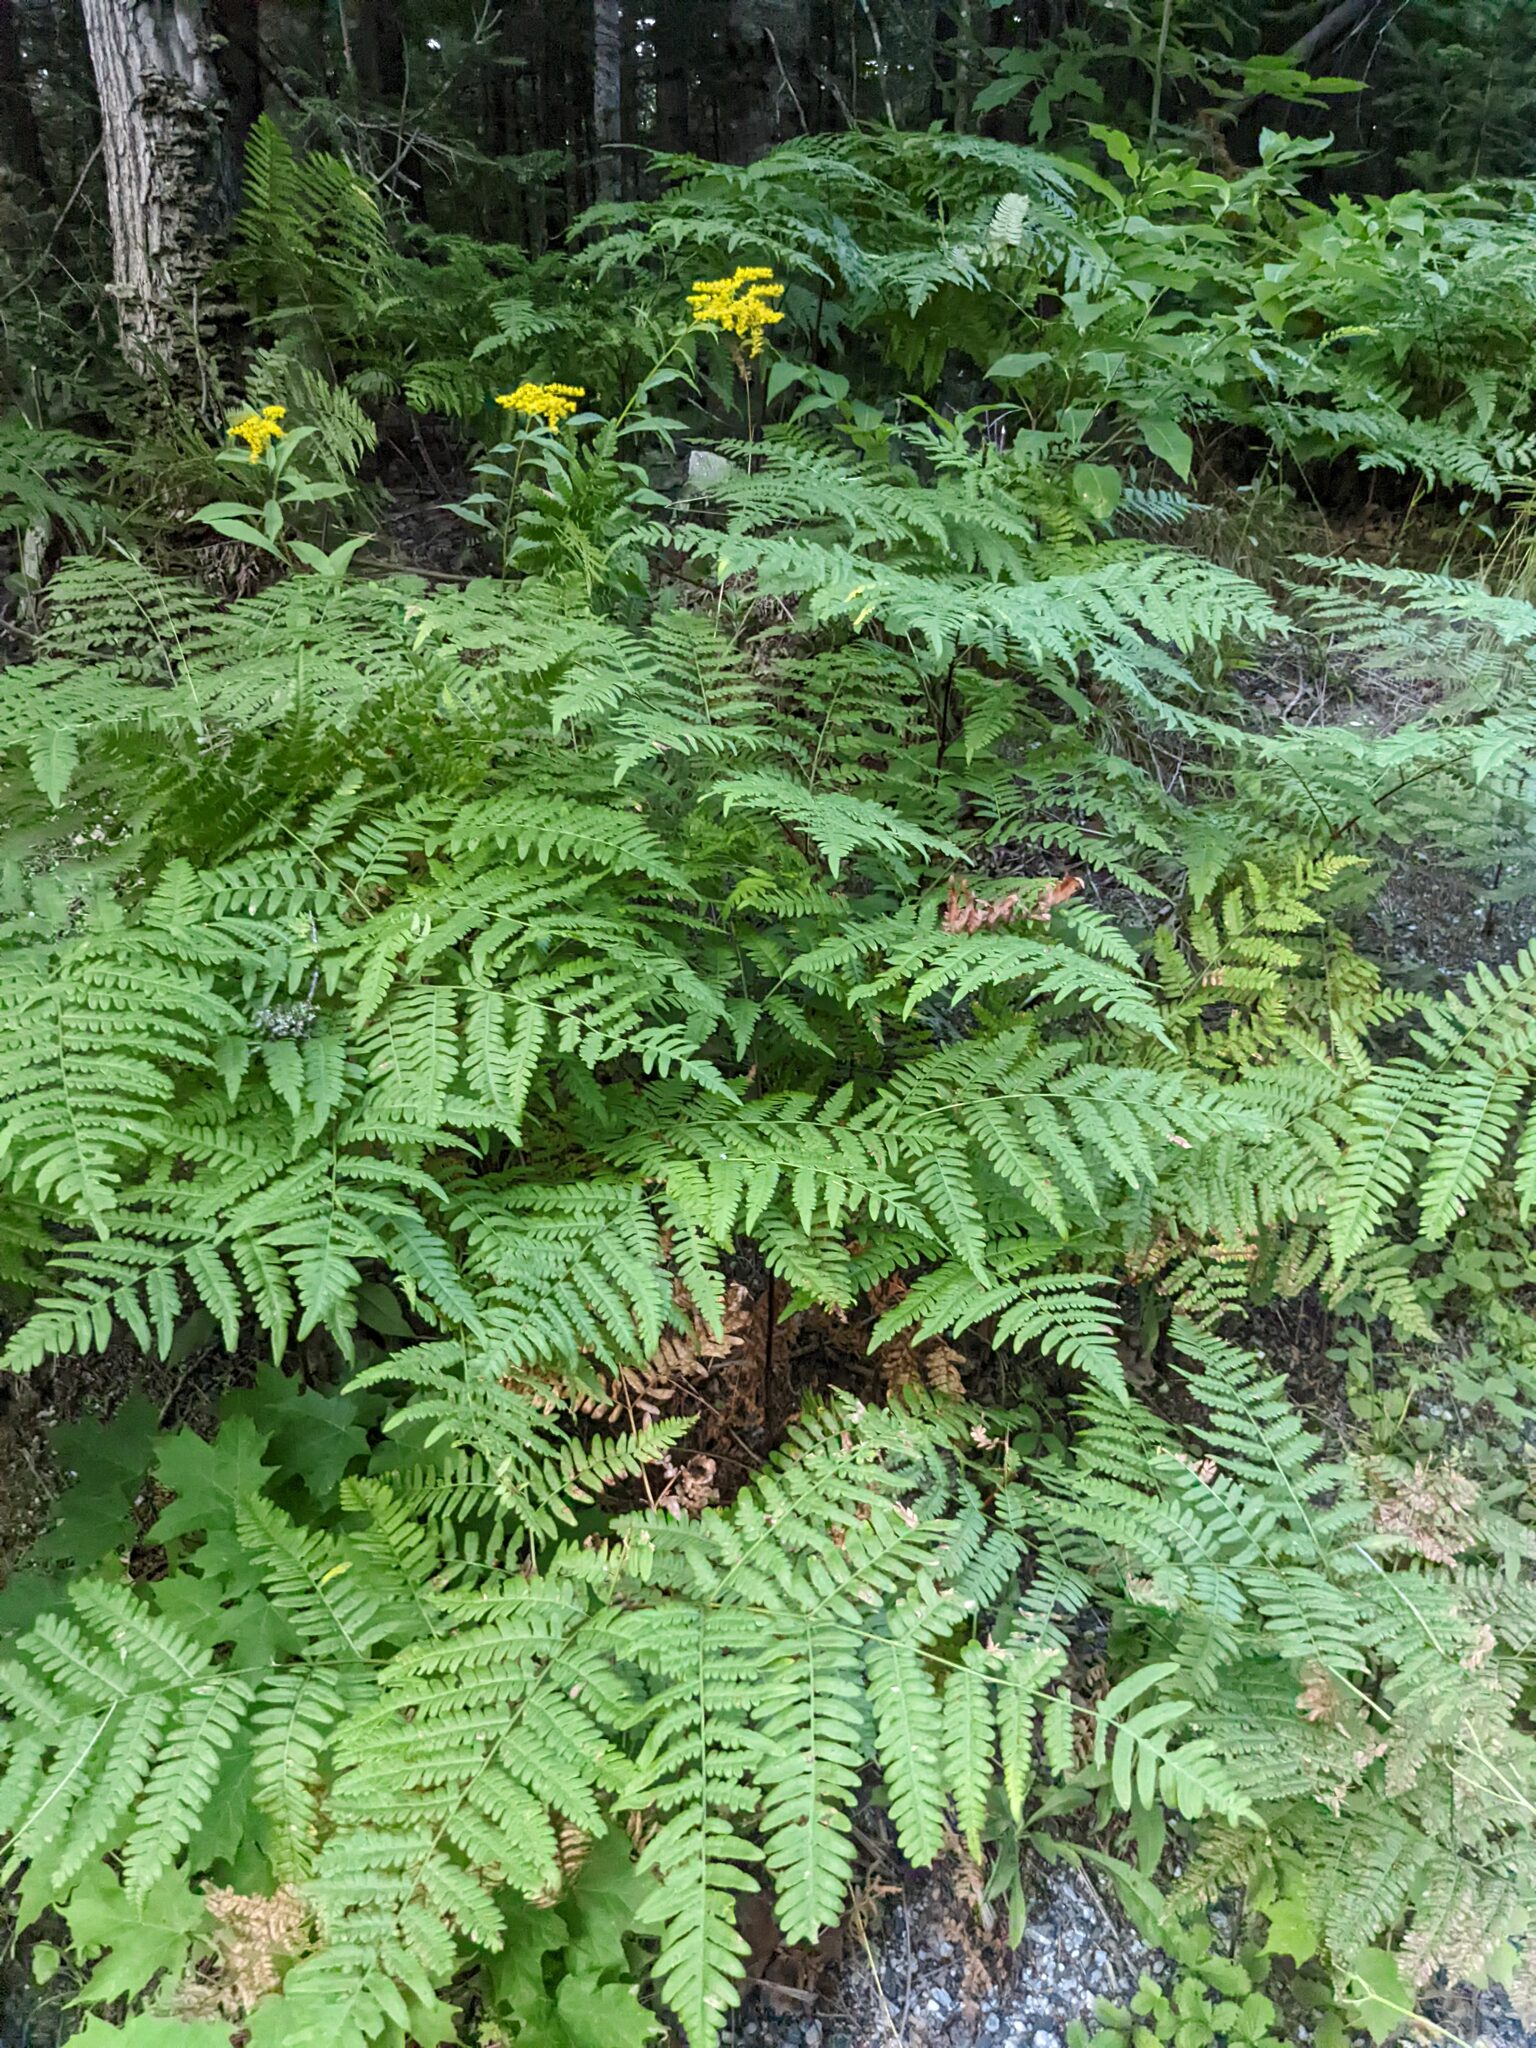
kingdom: Plantae
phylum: Tracheophyta
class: Polypodiopsida
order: Polypodiales
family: Dennstaedtiaceae
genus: Pteridium
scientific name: Pteridium aquilinum
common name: Bracken
